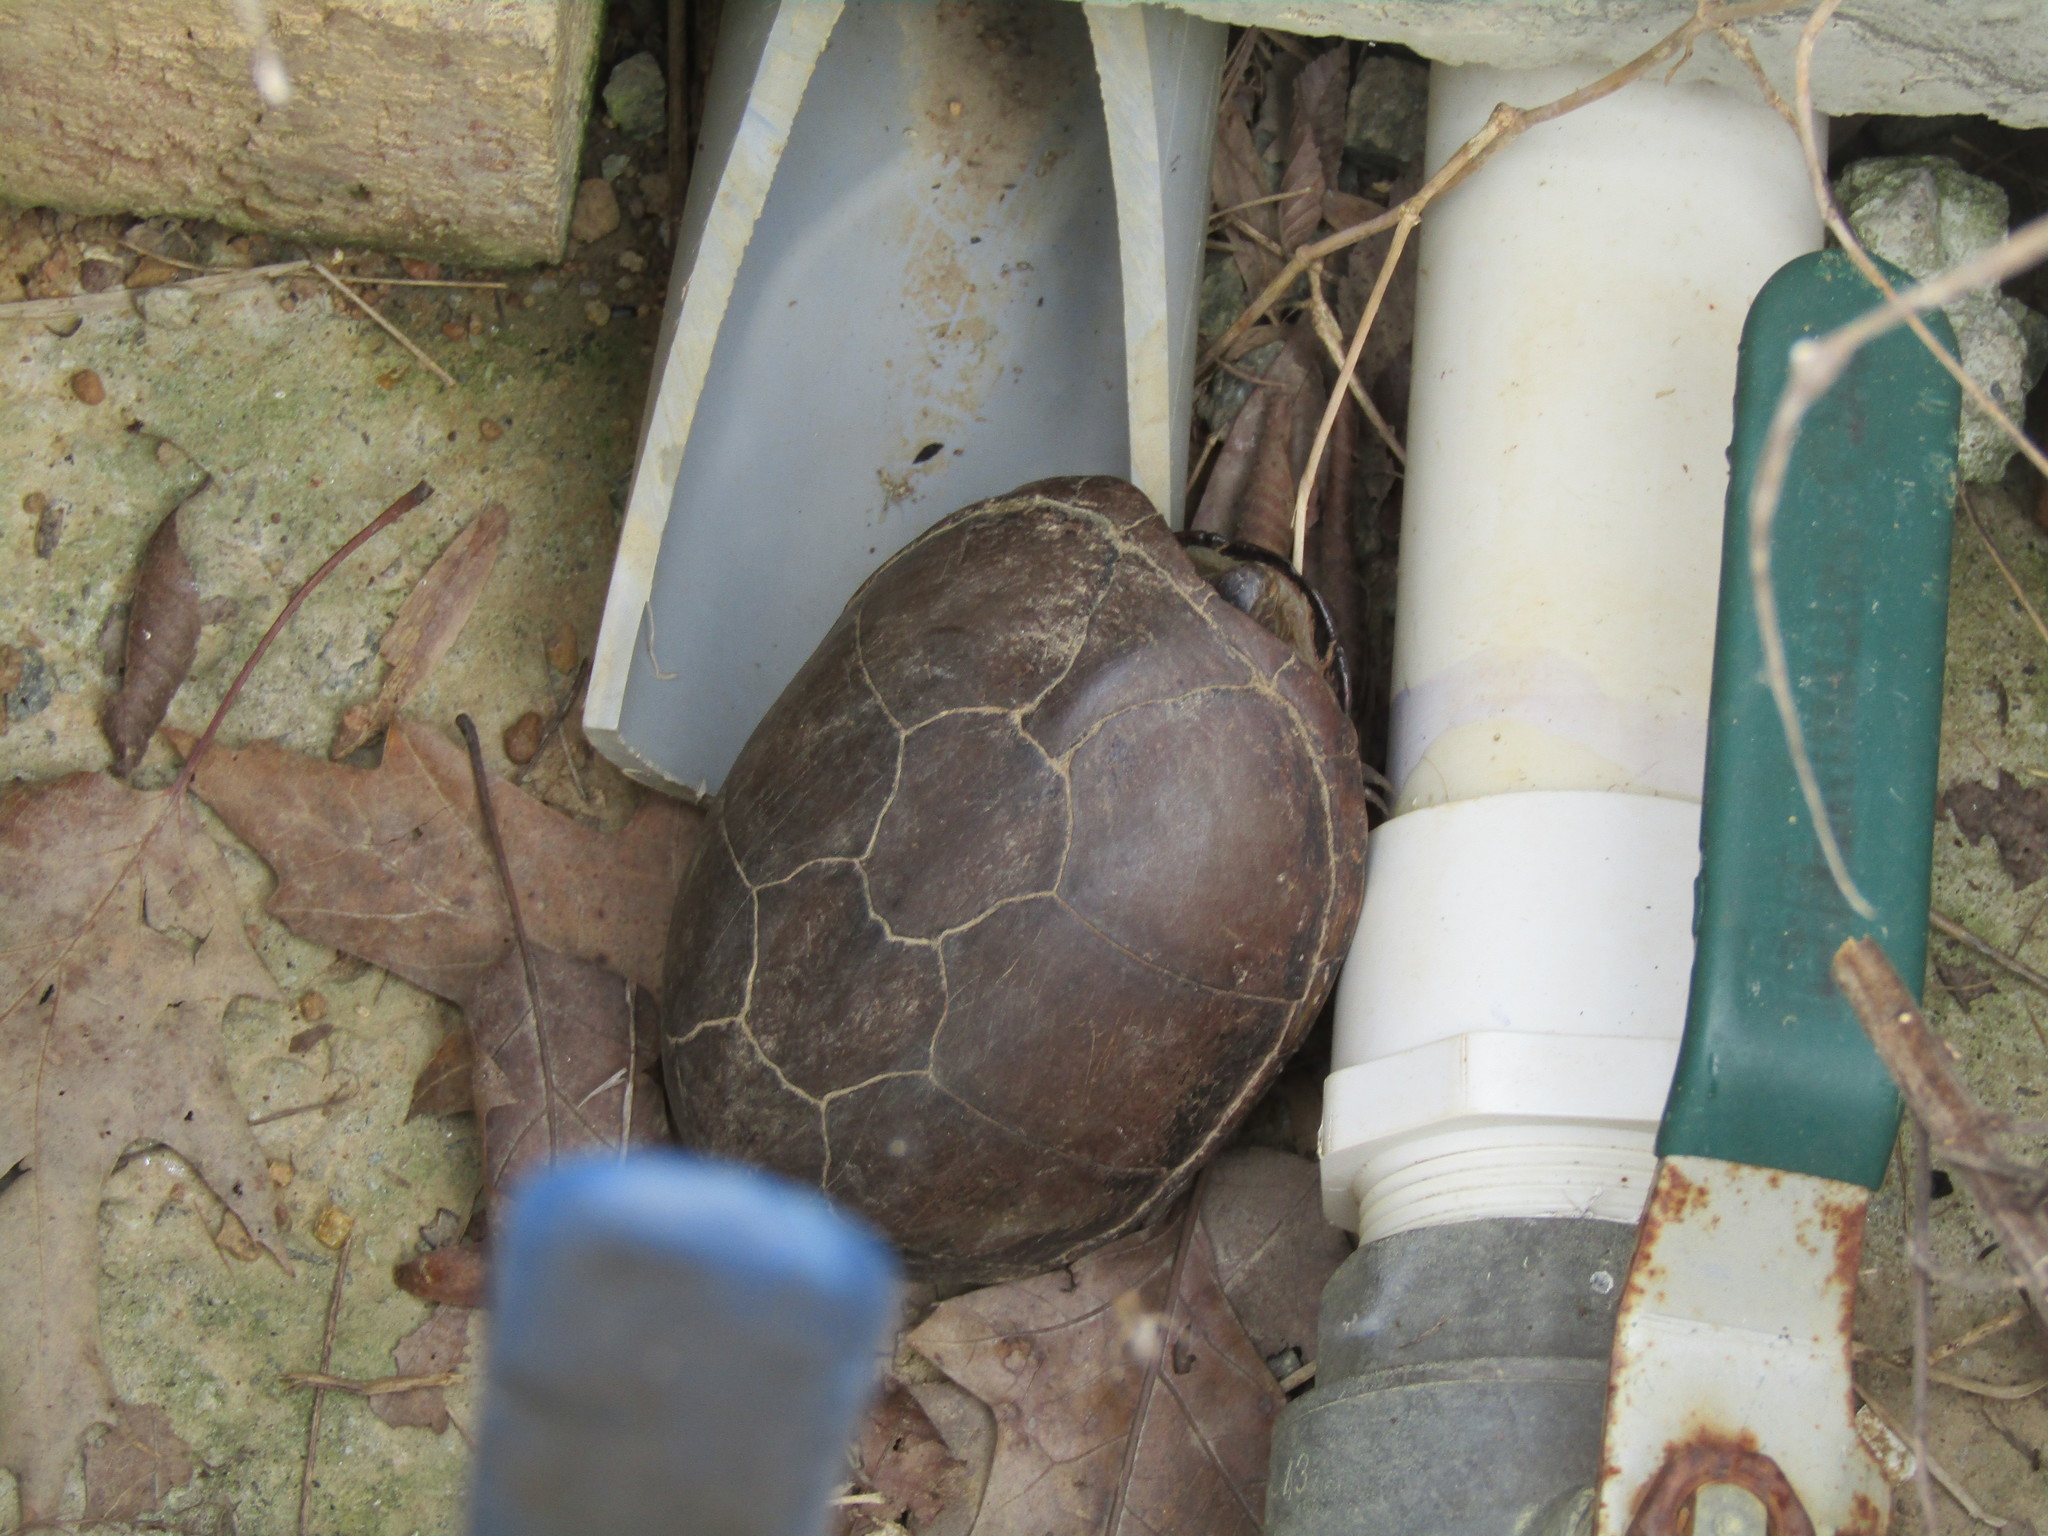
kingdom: Animalia
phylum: Chordata
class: Testudines
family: Kinosternidae
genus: Kinosternon
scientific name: Kinosternon subrubrum
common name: Eastern mud turtle
